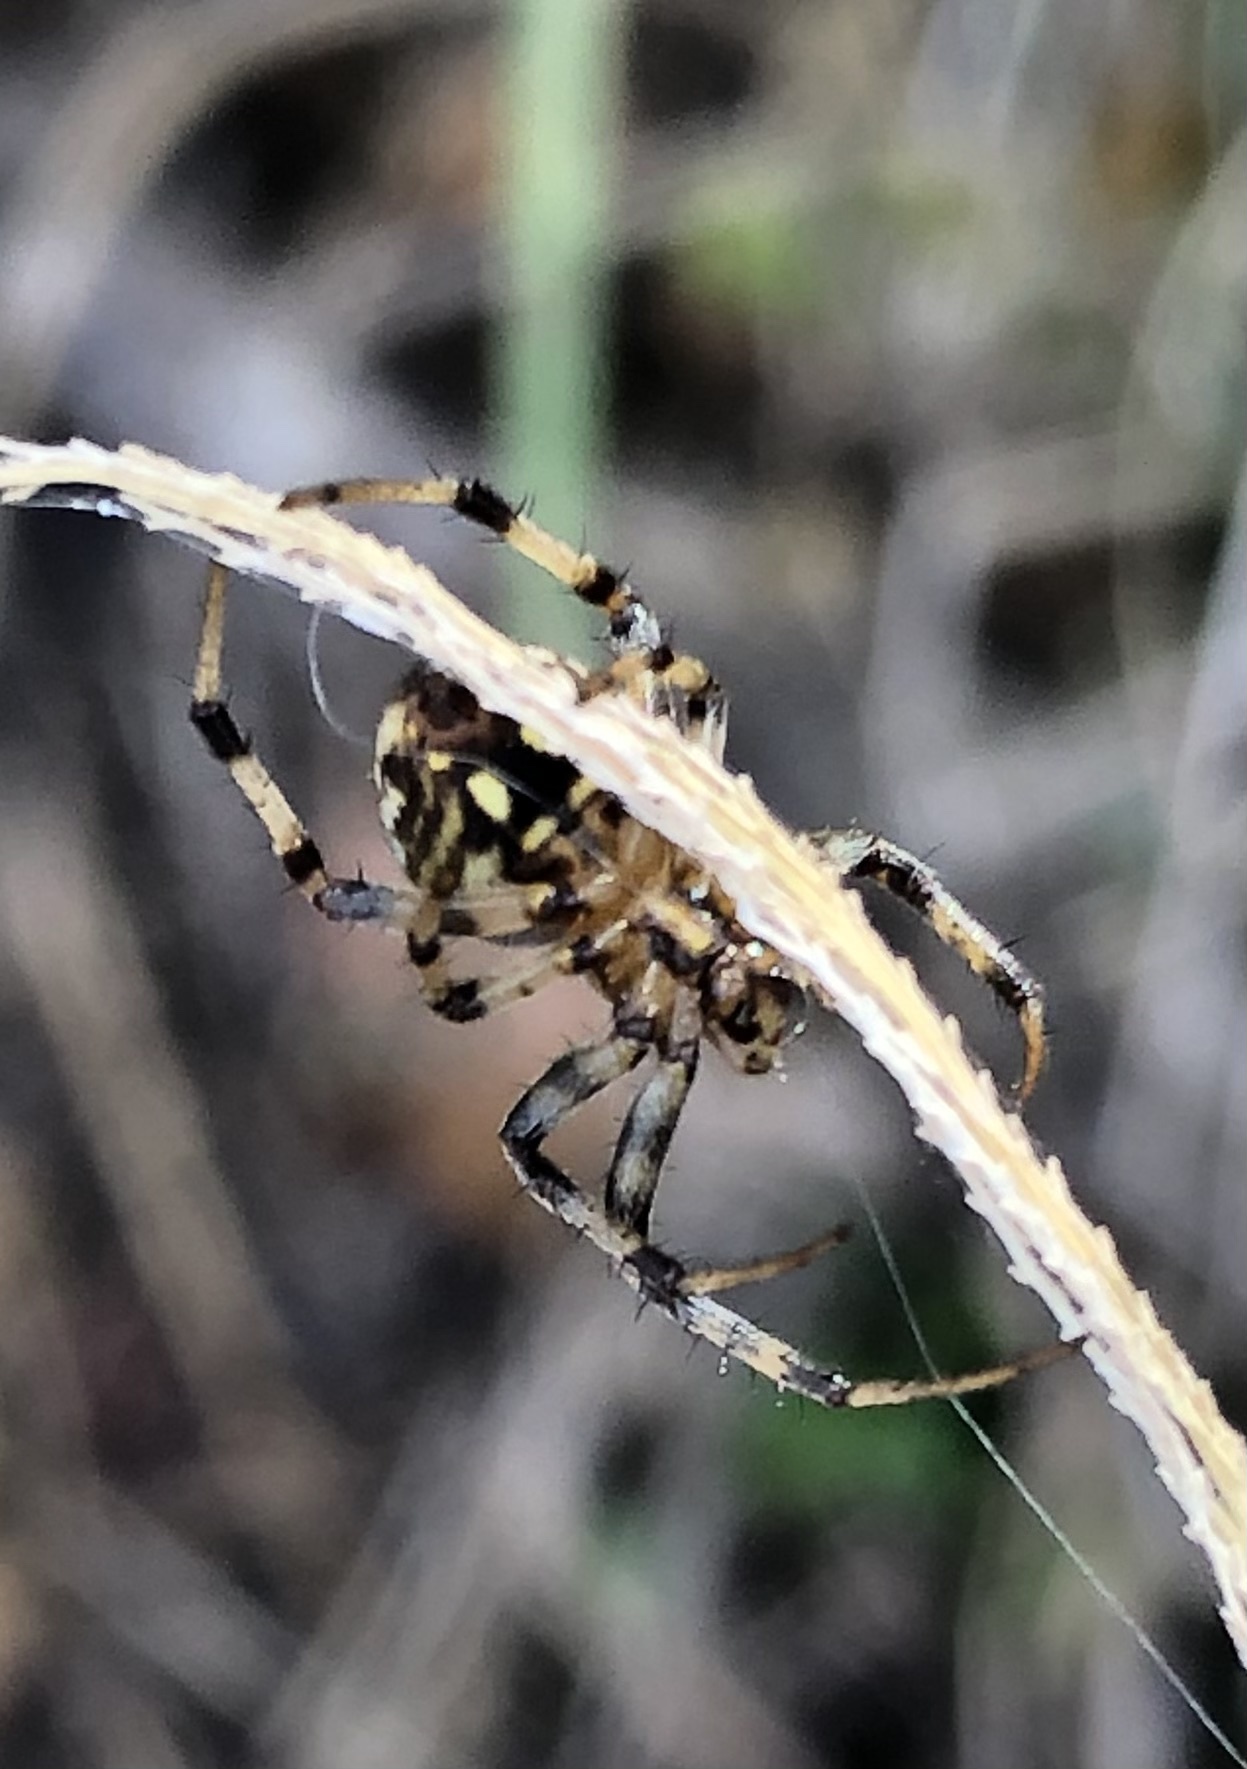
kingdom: Animalia
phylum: Arthropoda
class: Arachnida
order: Araneae
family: Araneidae
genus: Neoscona
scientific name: Neoscona arabesca
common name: Orb weavers
